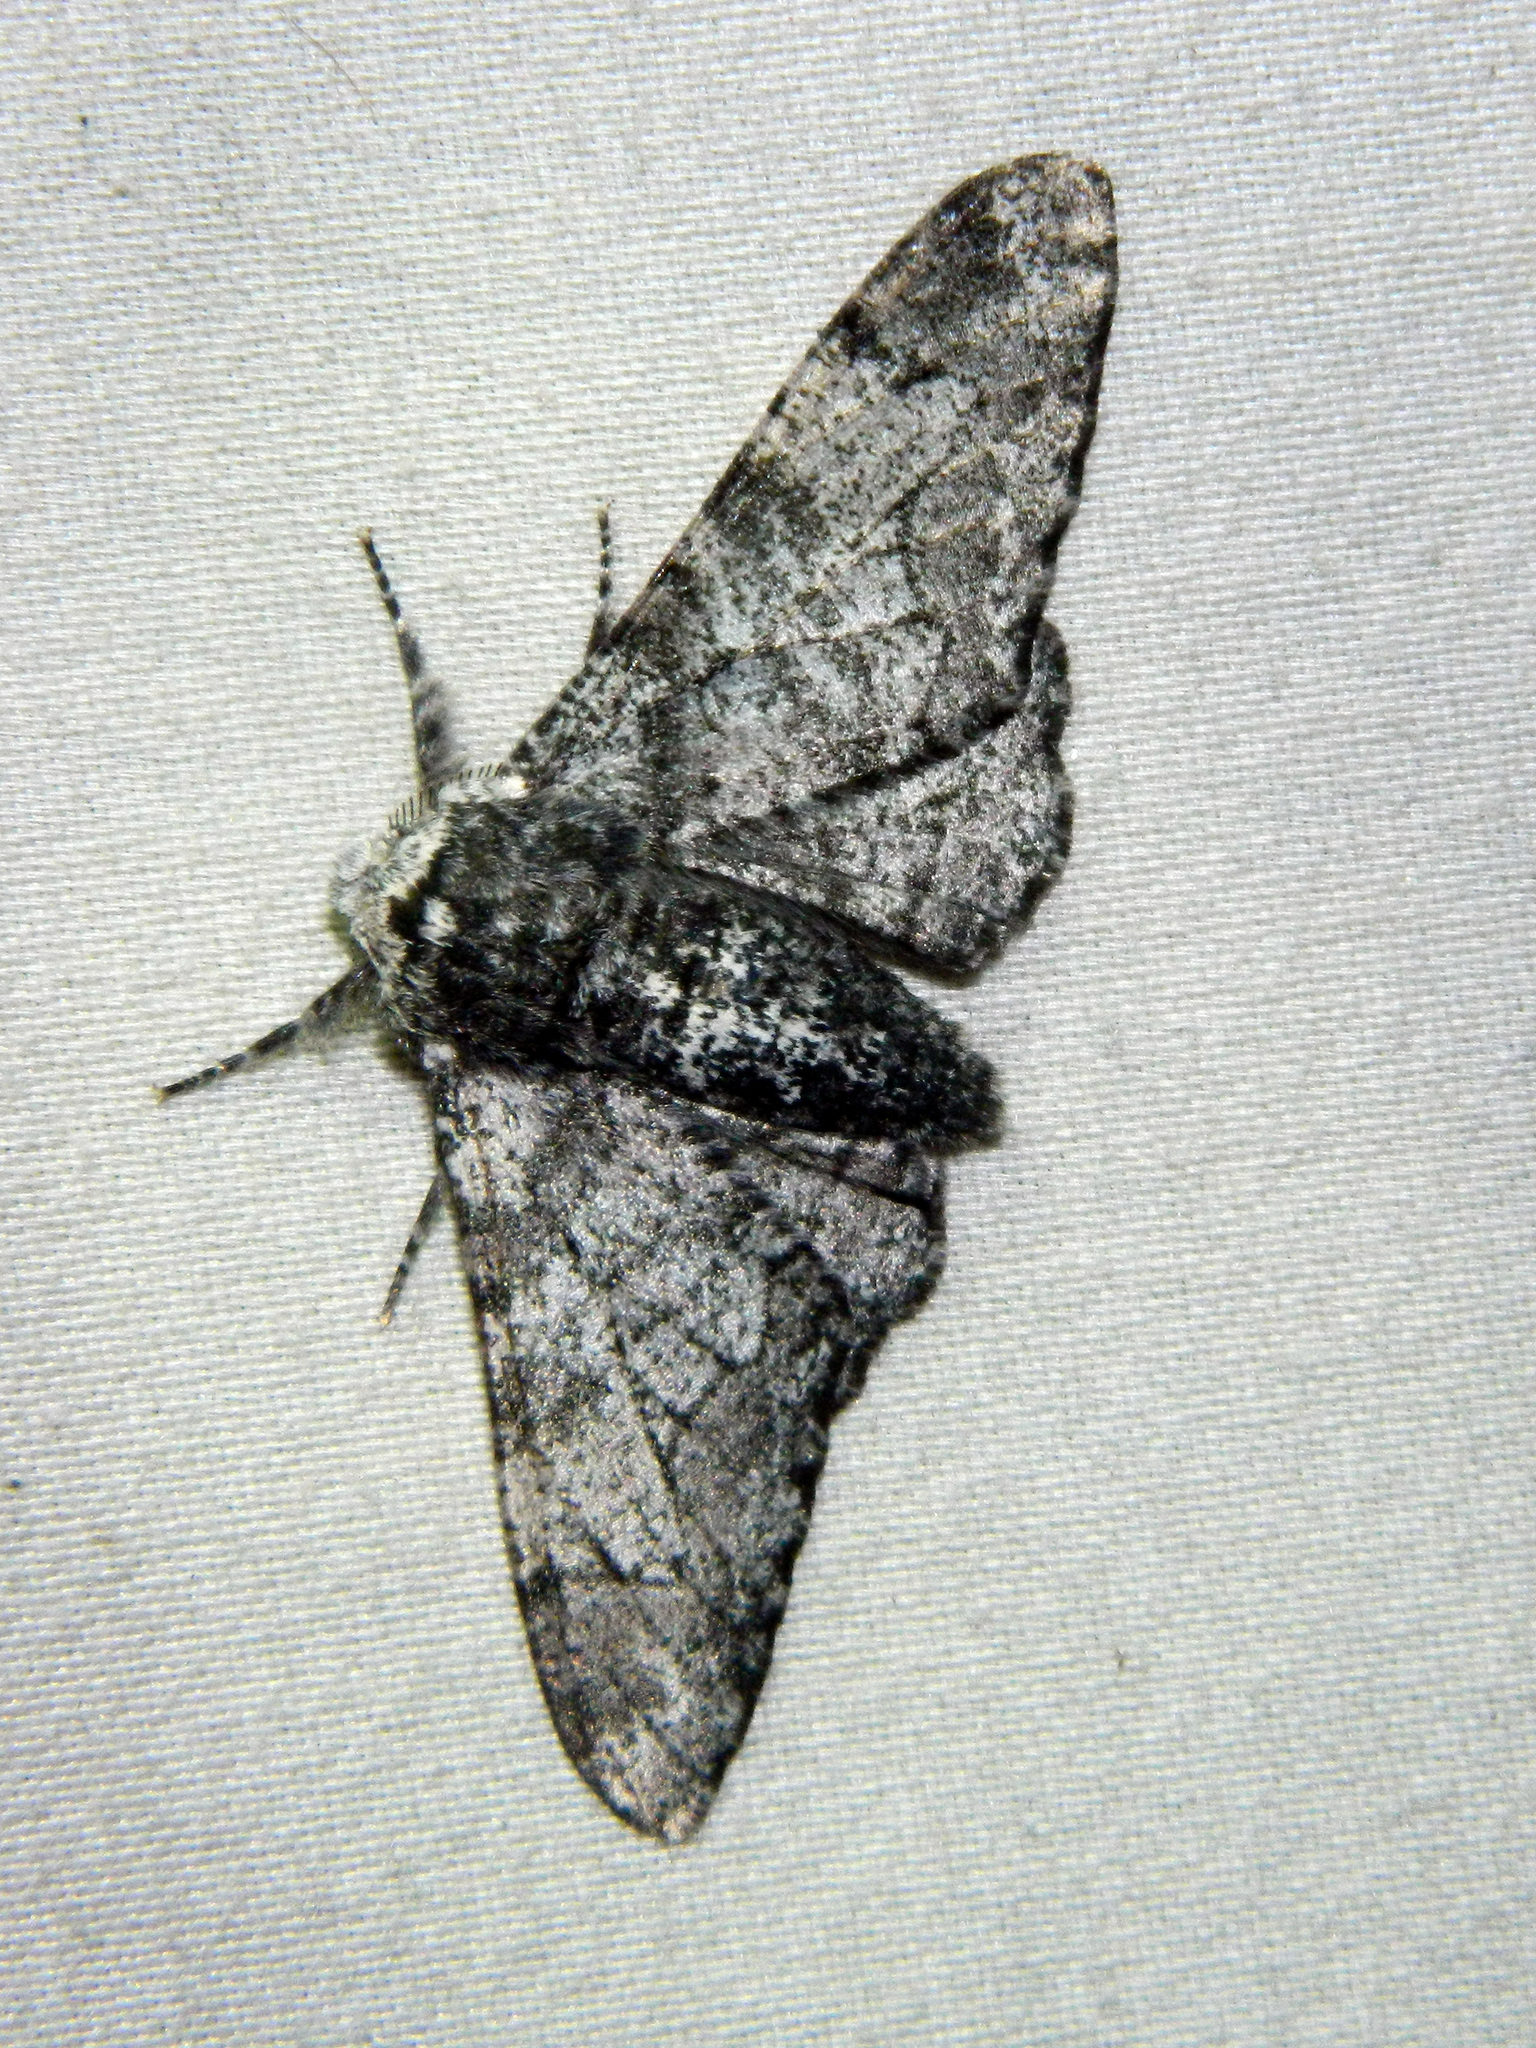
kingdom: Animalia
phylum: Arthropoda
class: Insecta
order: Lepidoptera
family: Geometridae
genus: Biston
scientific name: Biston betularia
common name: Peppered moth
